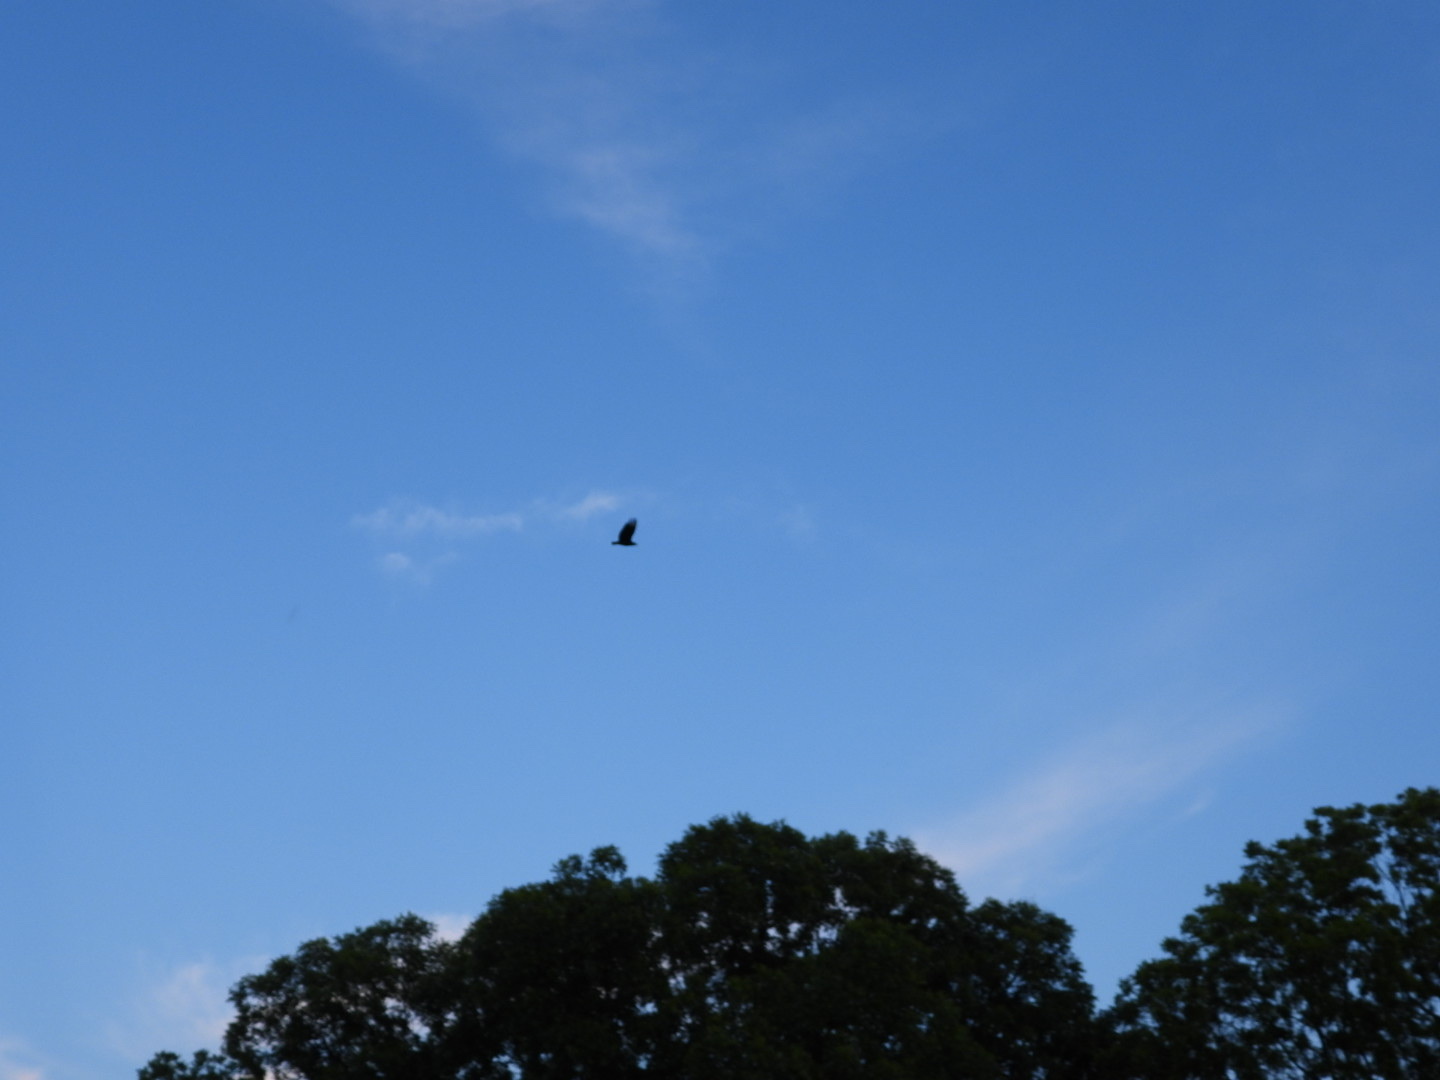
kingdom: Animalia
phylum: Chordata
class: Aves
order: Accipitriformes
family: Cathartidae
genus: Coragyps
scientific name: Coragyps atratus
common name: Black vulture
